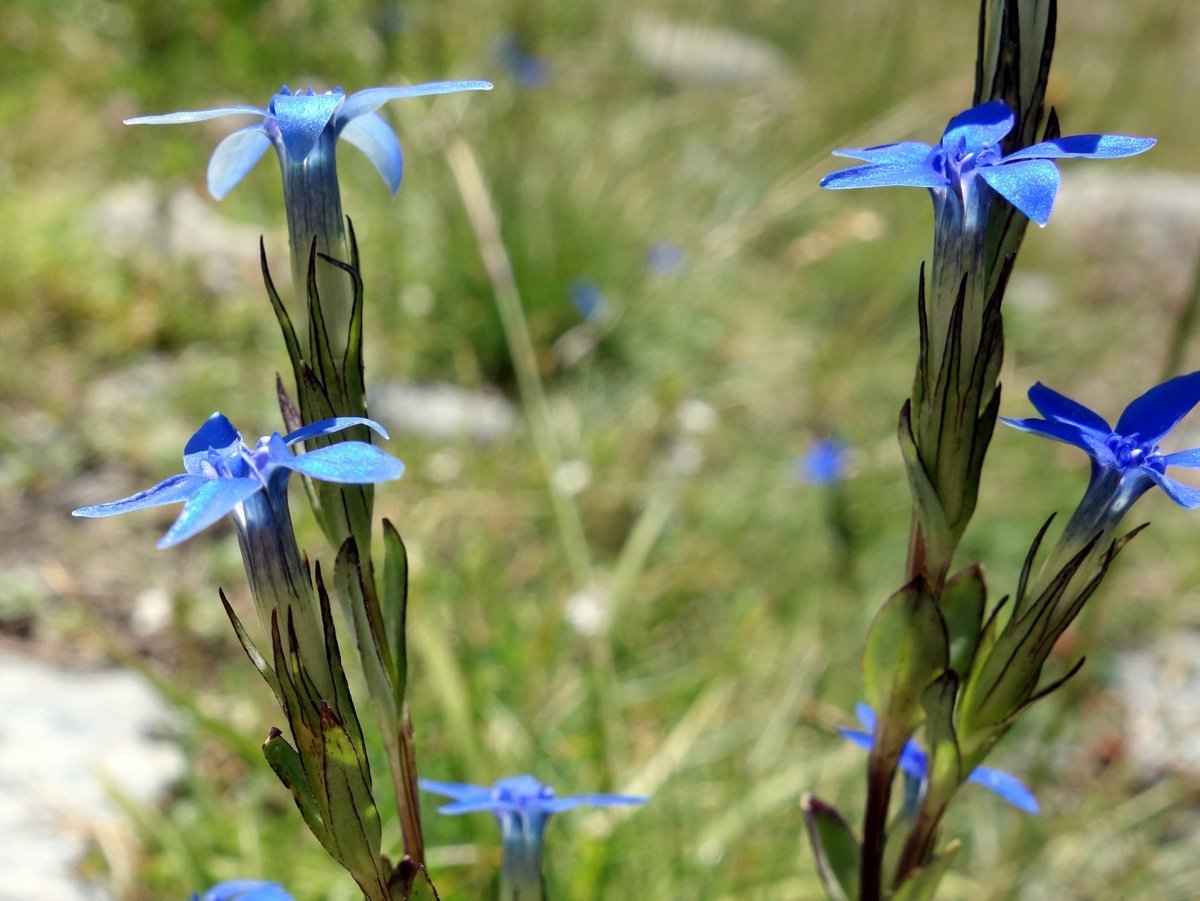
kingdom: Plantae
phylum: Tracheophyta
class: Magnoliopsida
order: Gentianales
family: Gentianaceae
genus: Gentiana
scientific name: Gentiana nivalis
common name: Alpine gentian
